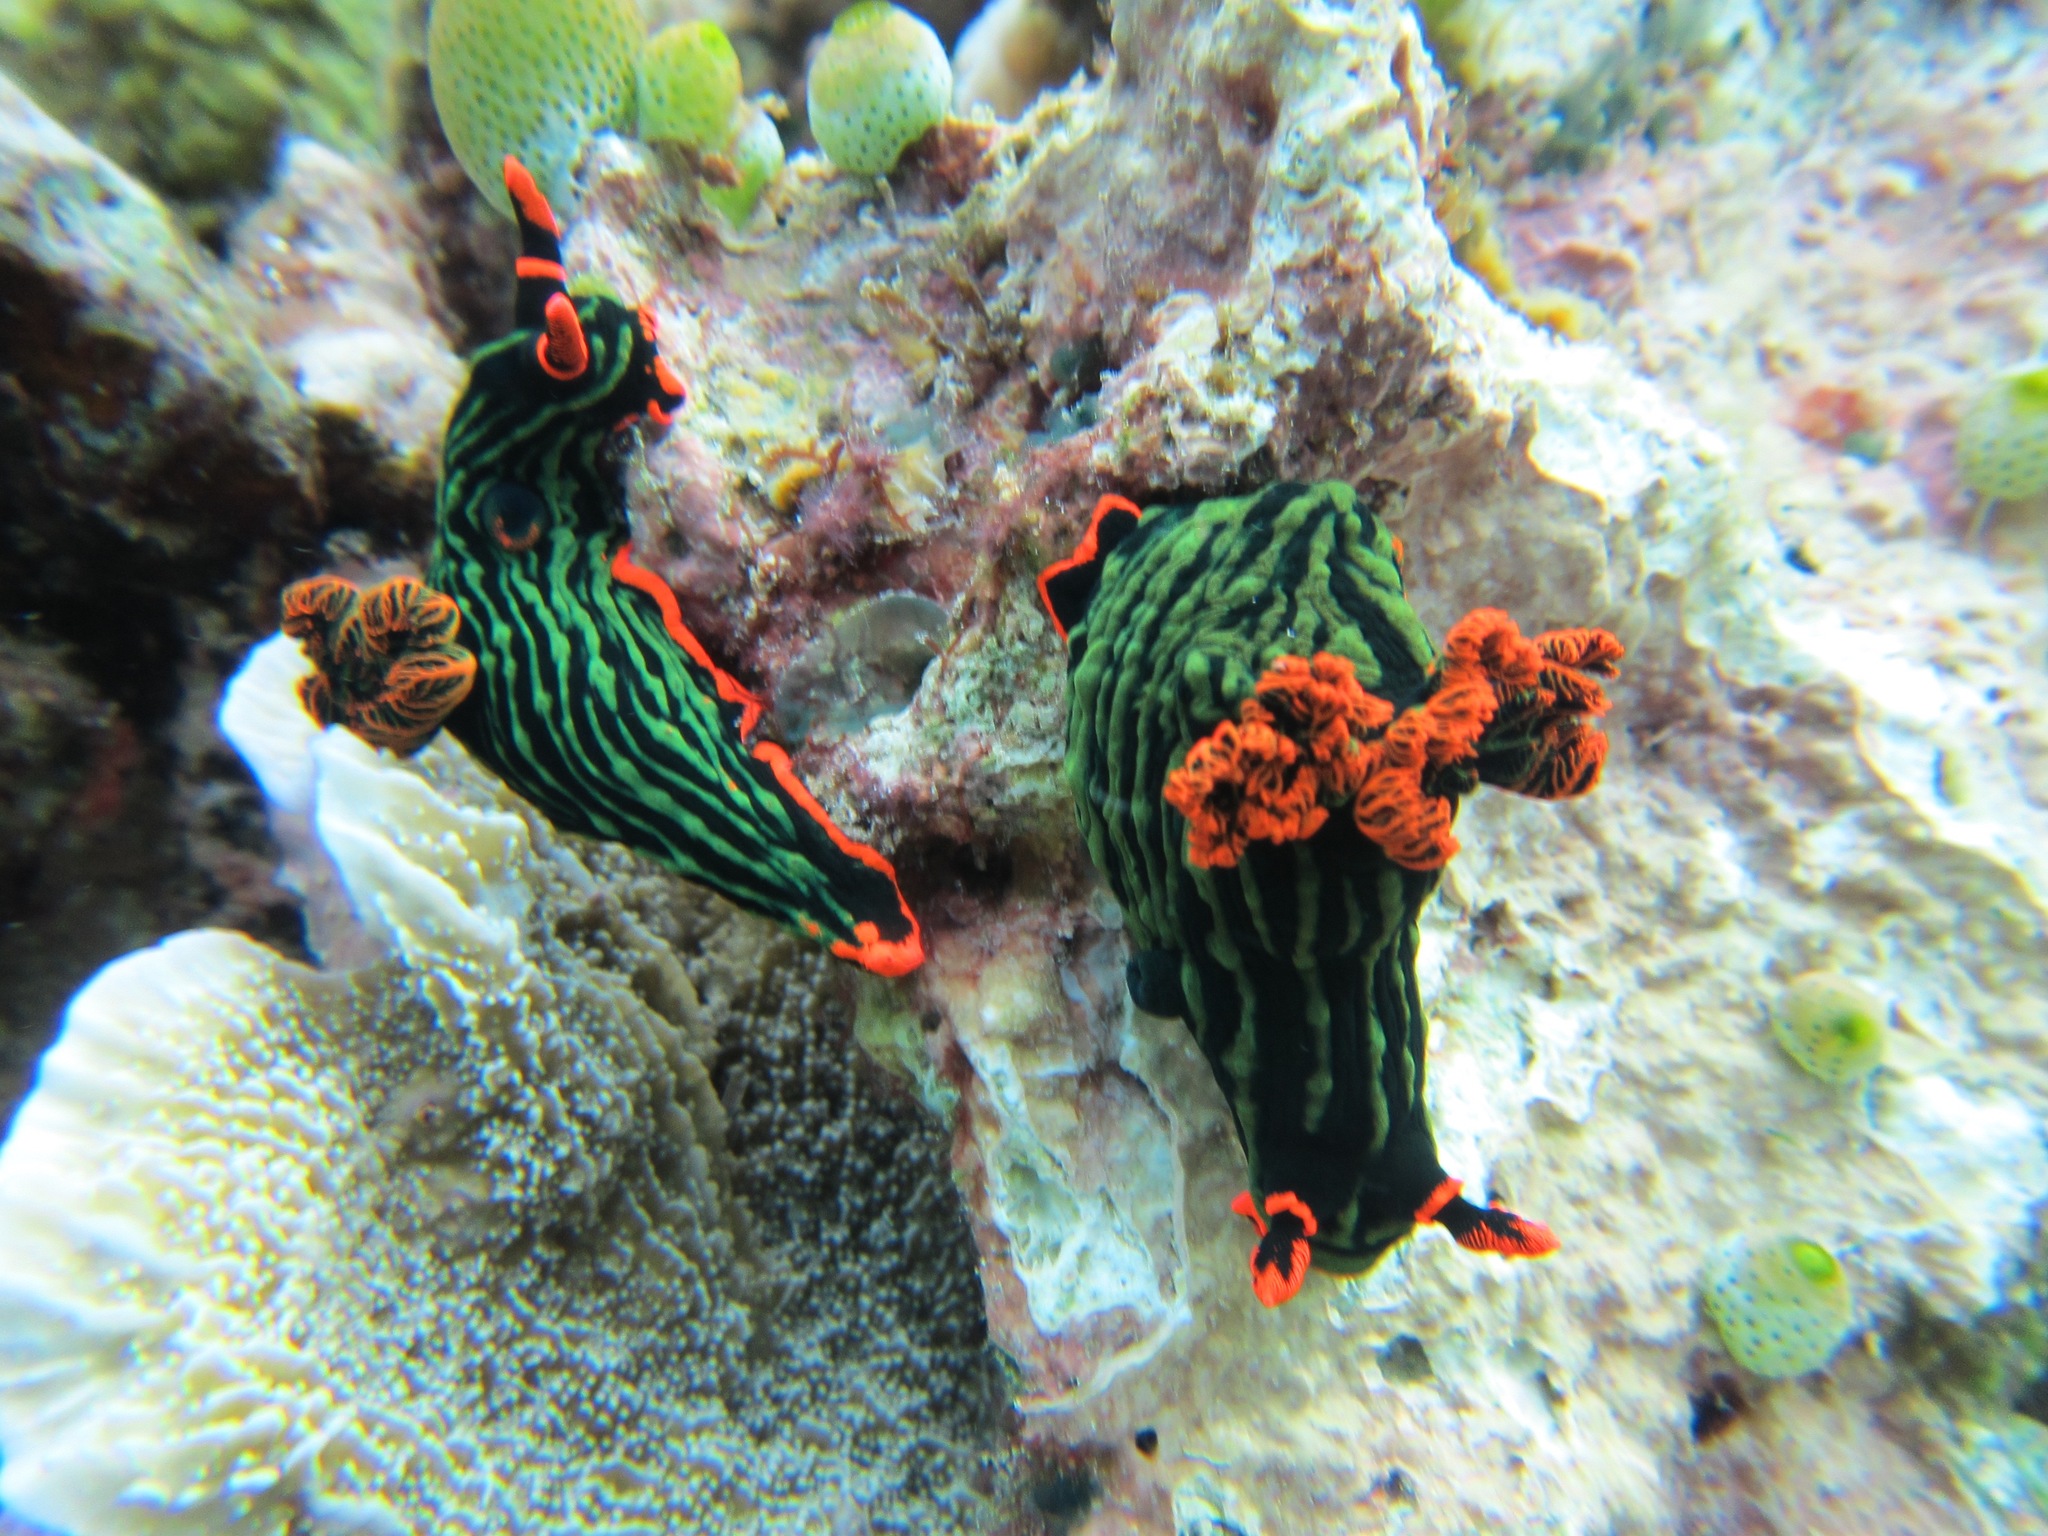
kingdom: Animalia
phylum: Mollusca
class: Gastropoda
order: Nudibranchia
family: Polyceridae
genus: Nembrotha
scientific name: Nembrotha kubaryana
